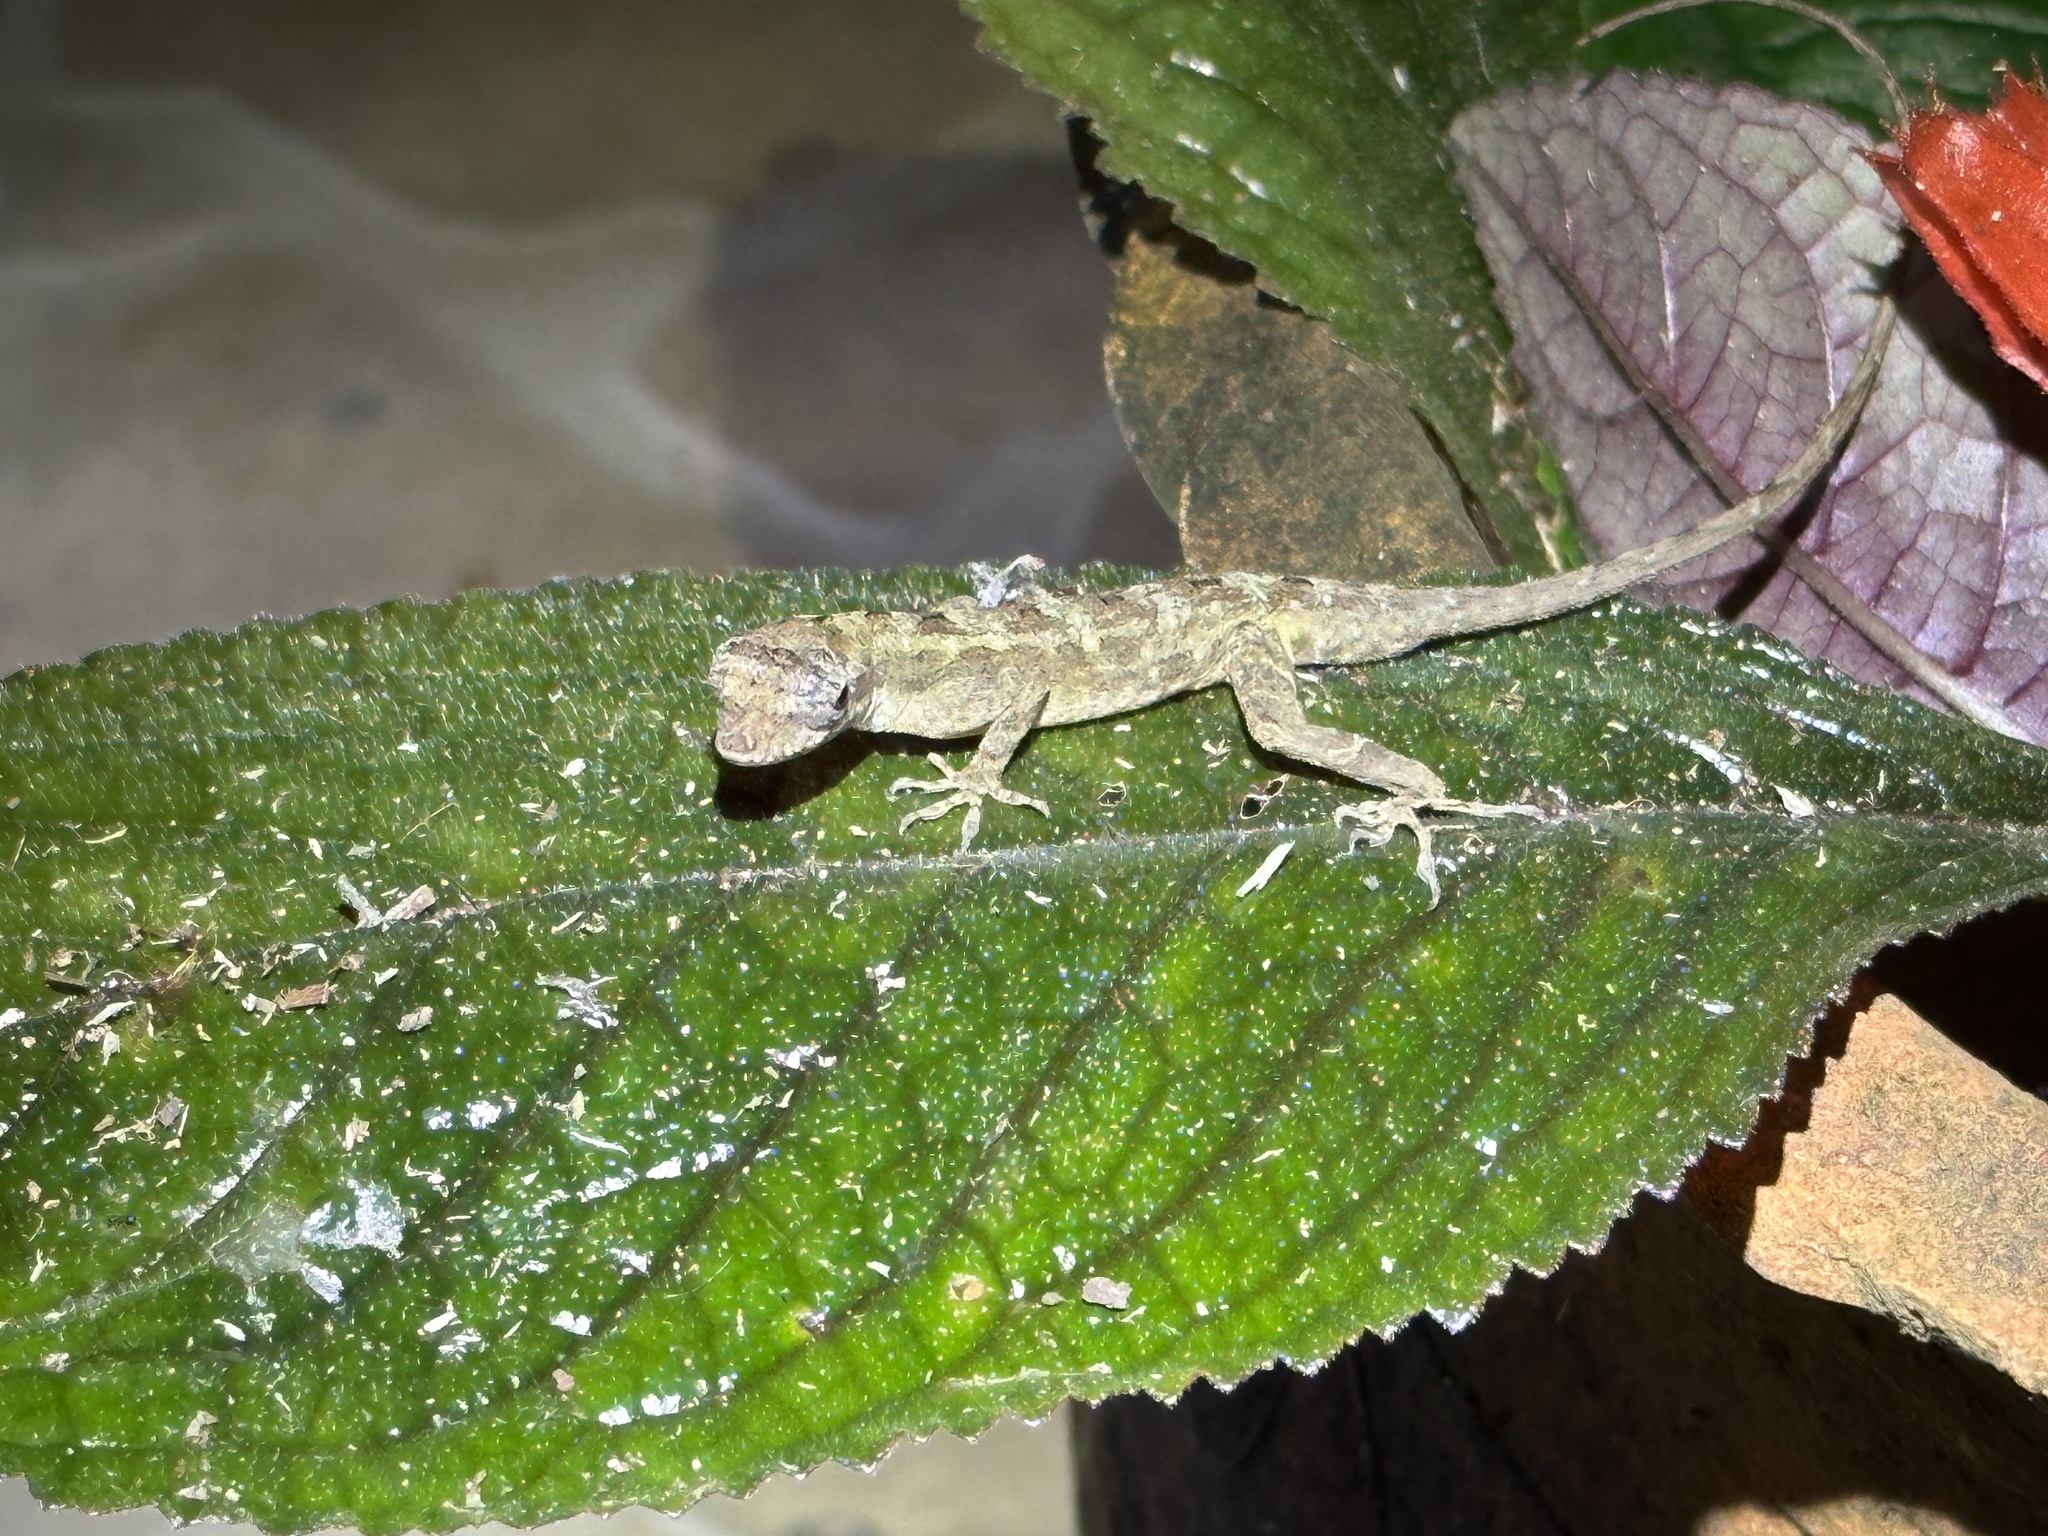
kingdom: Animalia
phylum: Chordata
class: Squamata
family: Dactyloidae
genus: Anolis
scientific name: Anolis lemurinus
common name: Ghost anole
